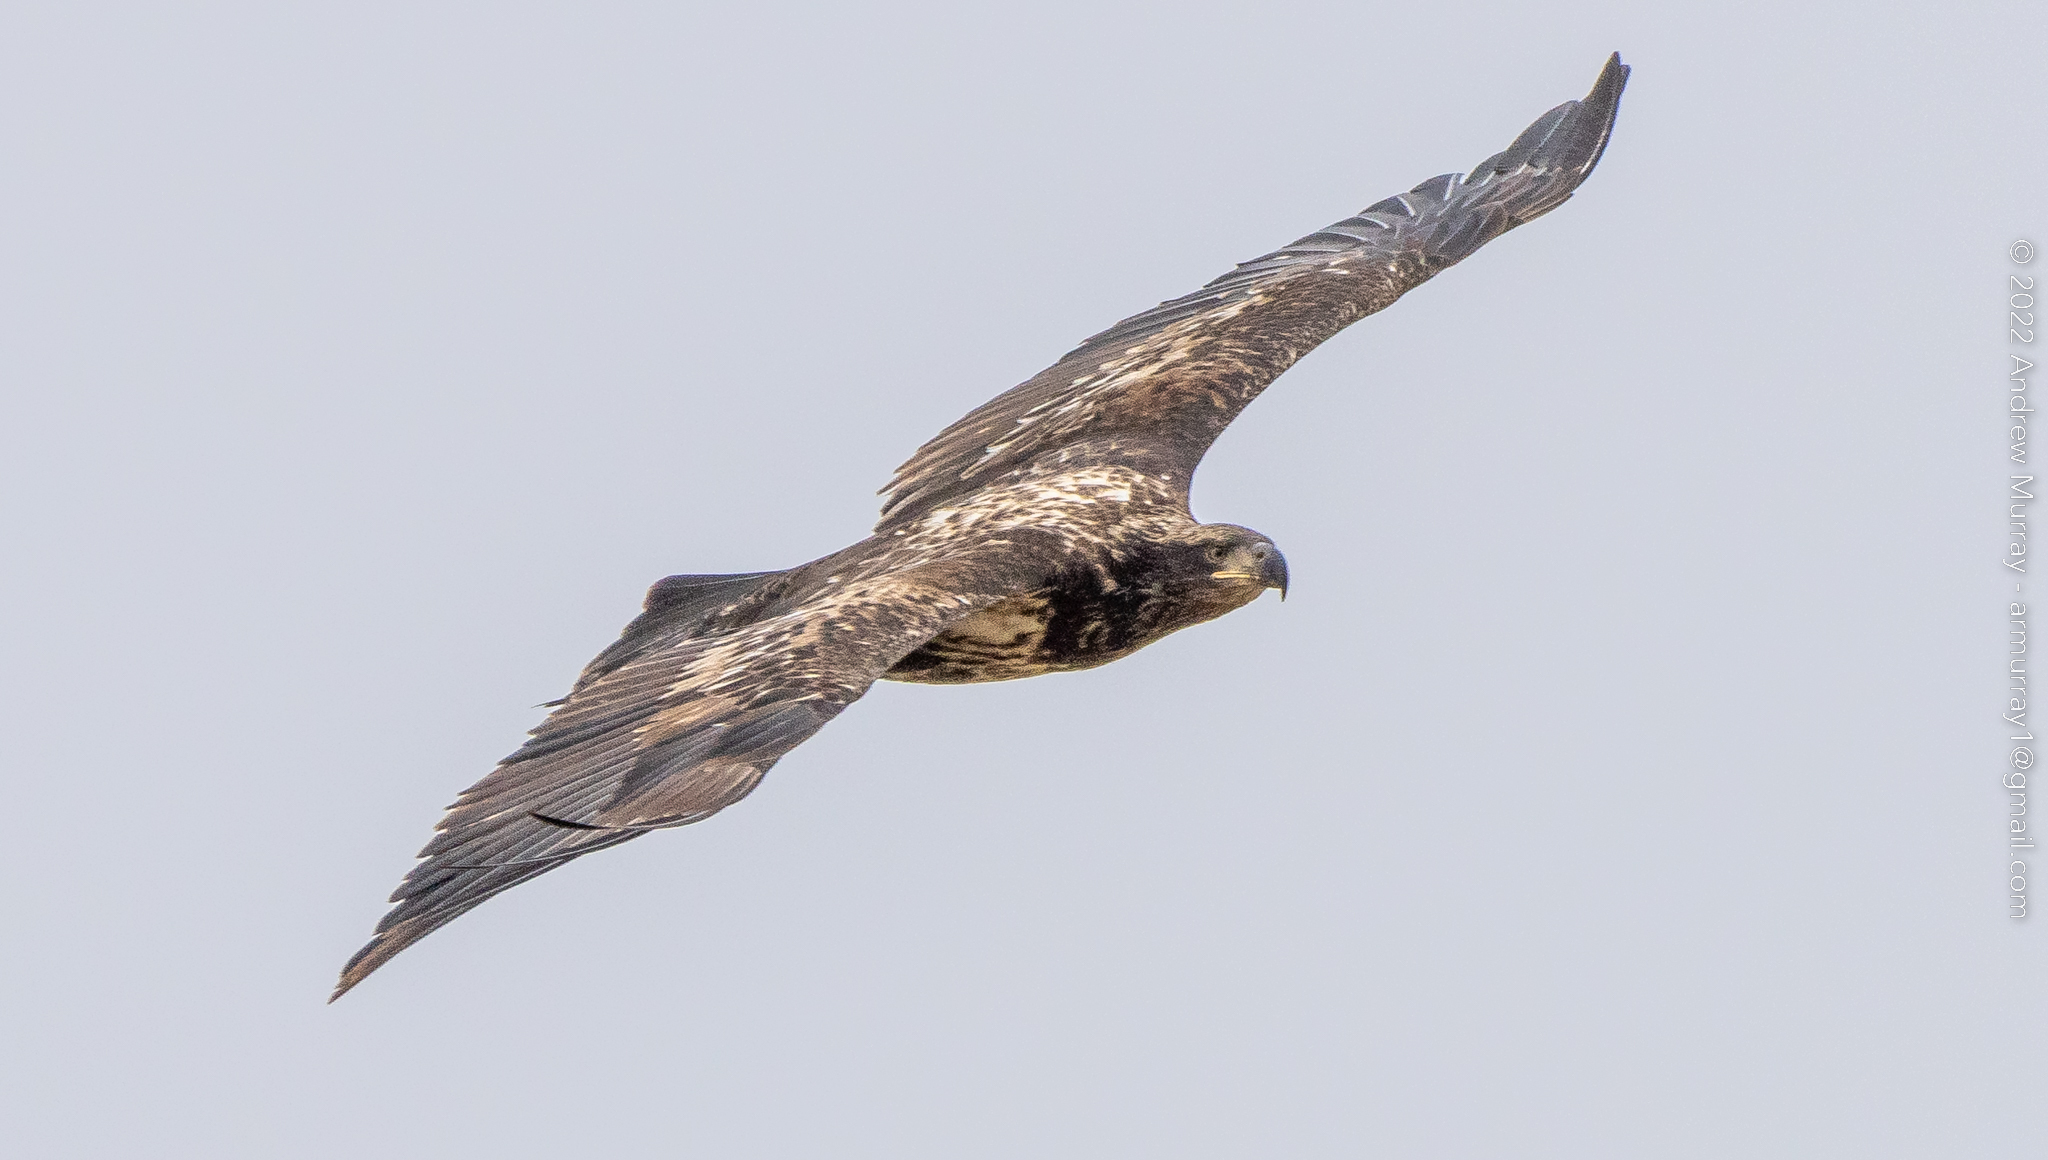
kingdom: Animalia
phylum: Chordata
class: Aves
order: Accipitriformes
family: Accipitridae
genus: Haliaeetus
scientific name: Haliaeetus leucocephalus
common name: Bald eagle
